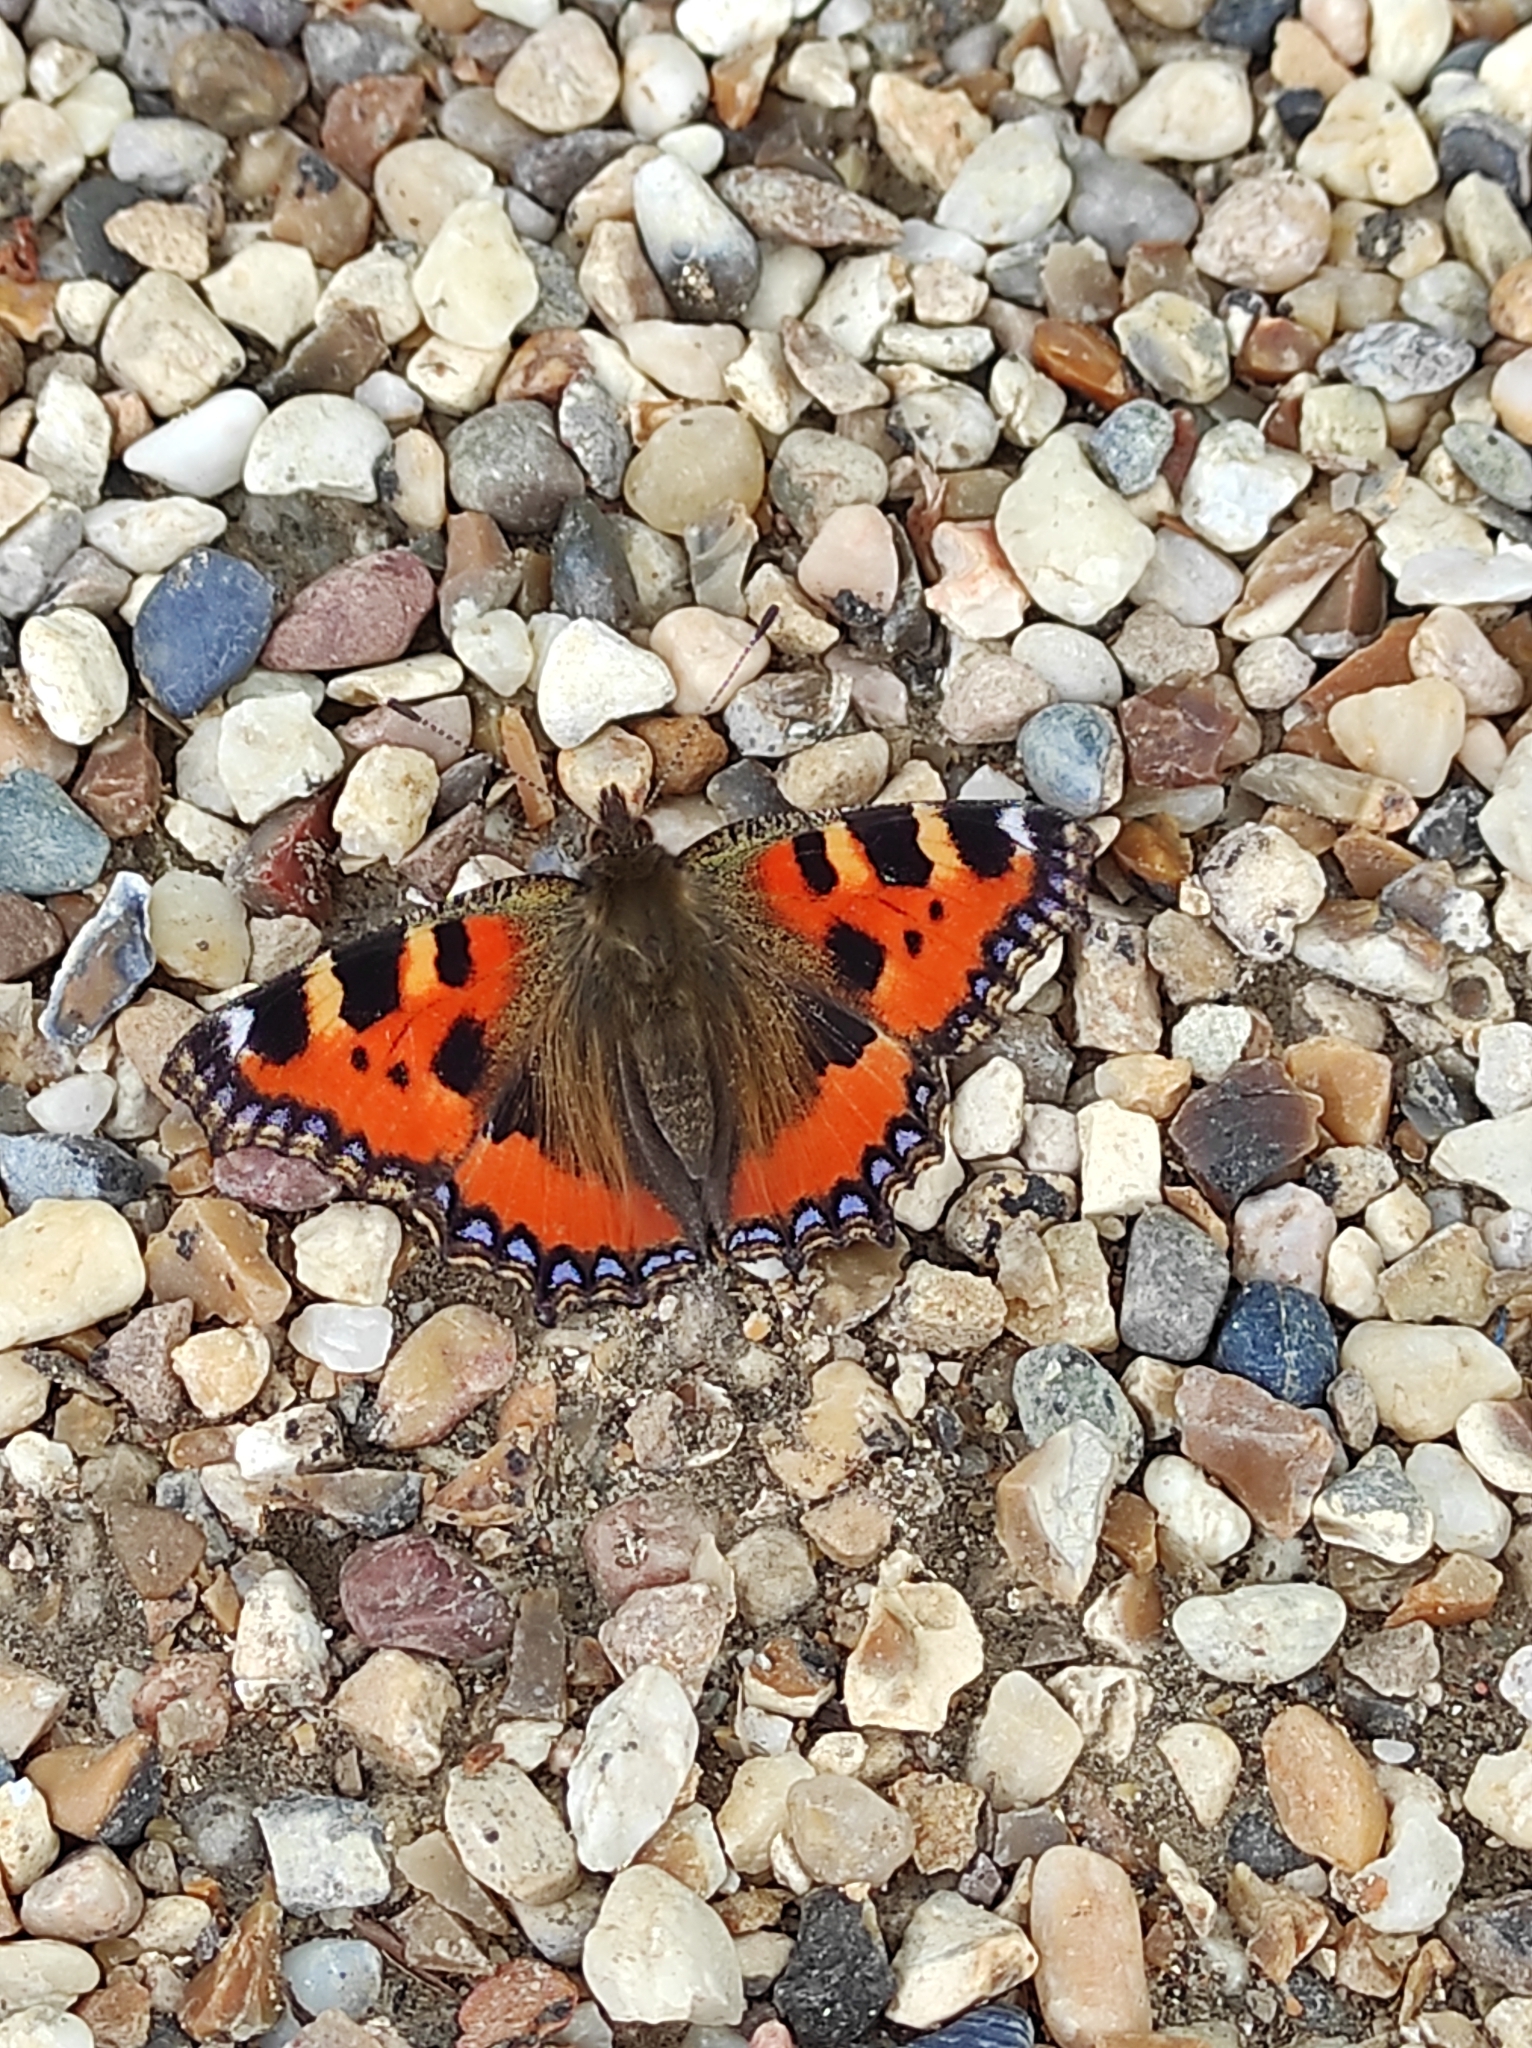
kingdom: Animalia
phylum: Arthropoda
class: Insecta
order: Lepidoptera
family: Nymphalidae
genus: Aglais
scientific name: Aglais urticae
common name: Small tortoiseshell
